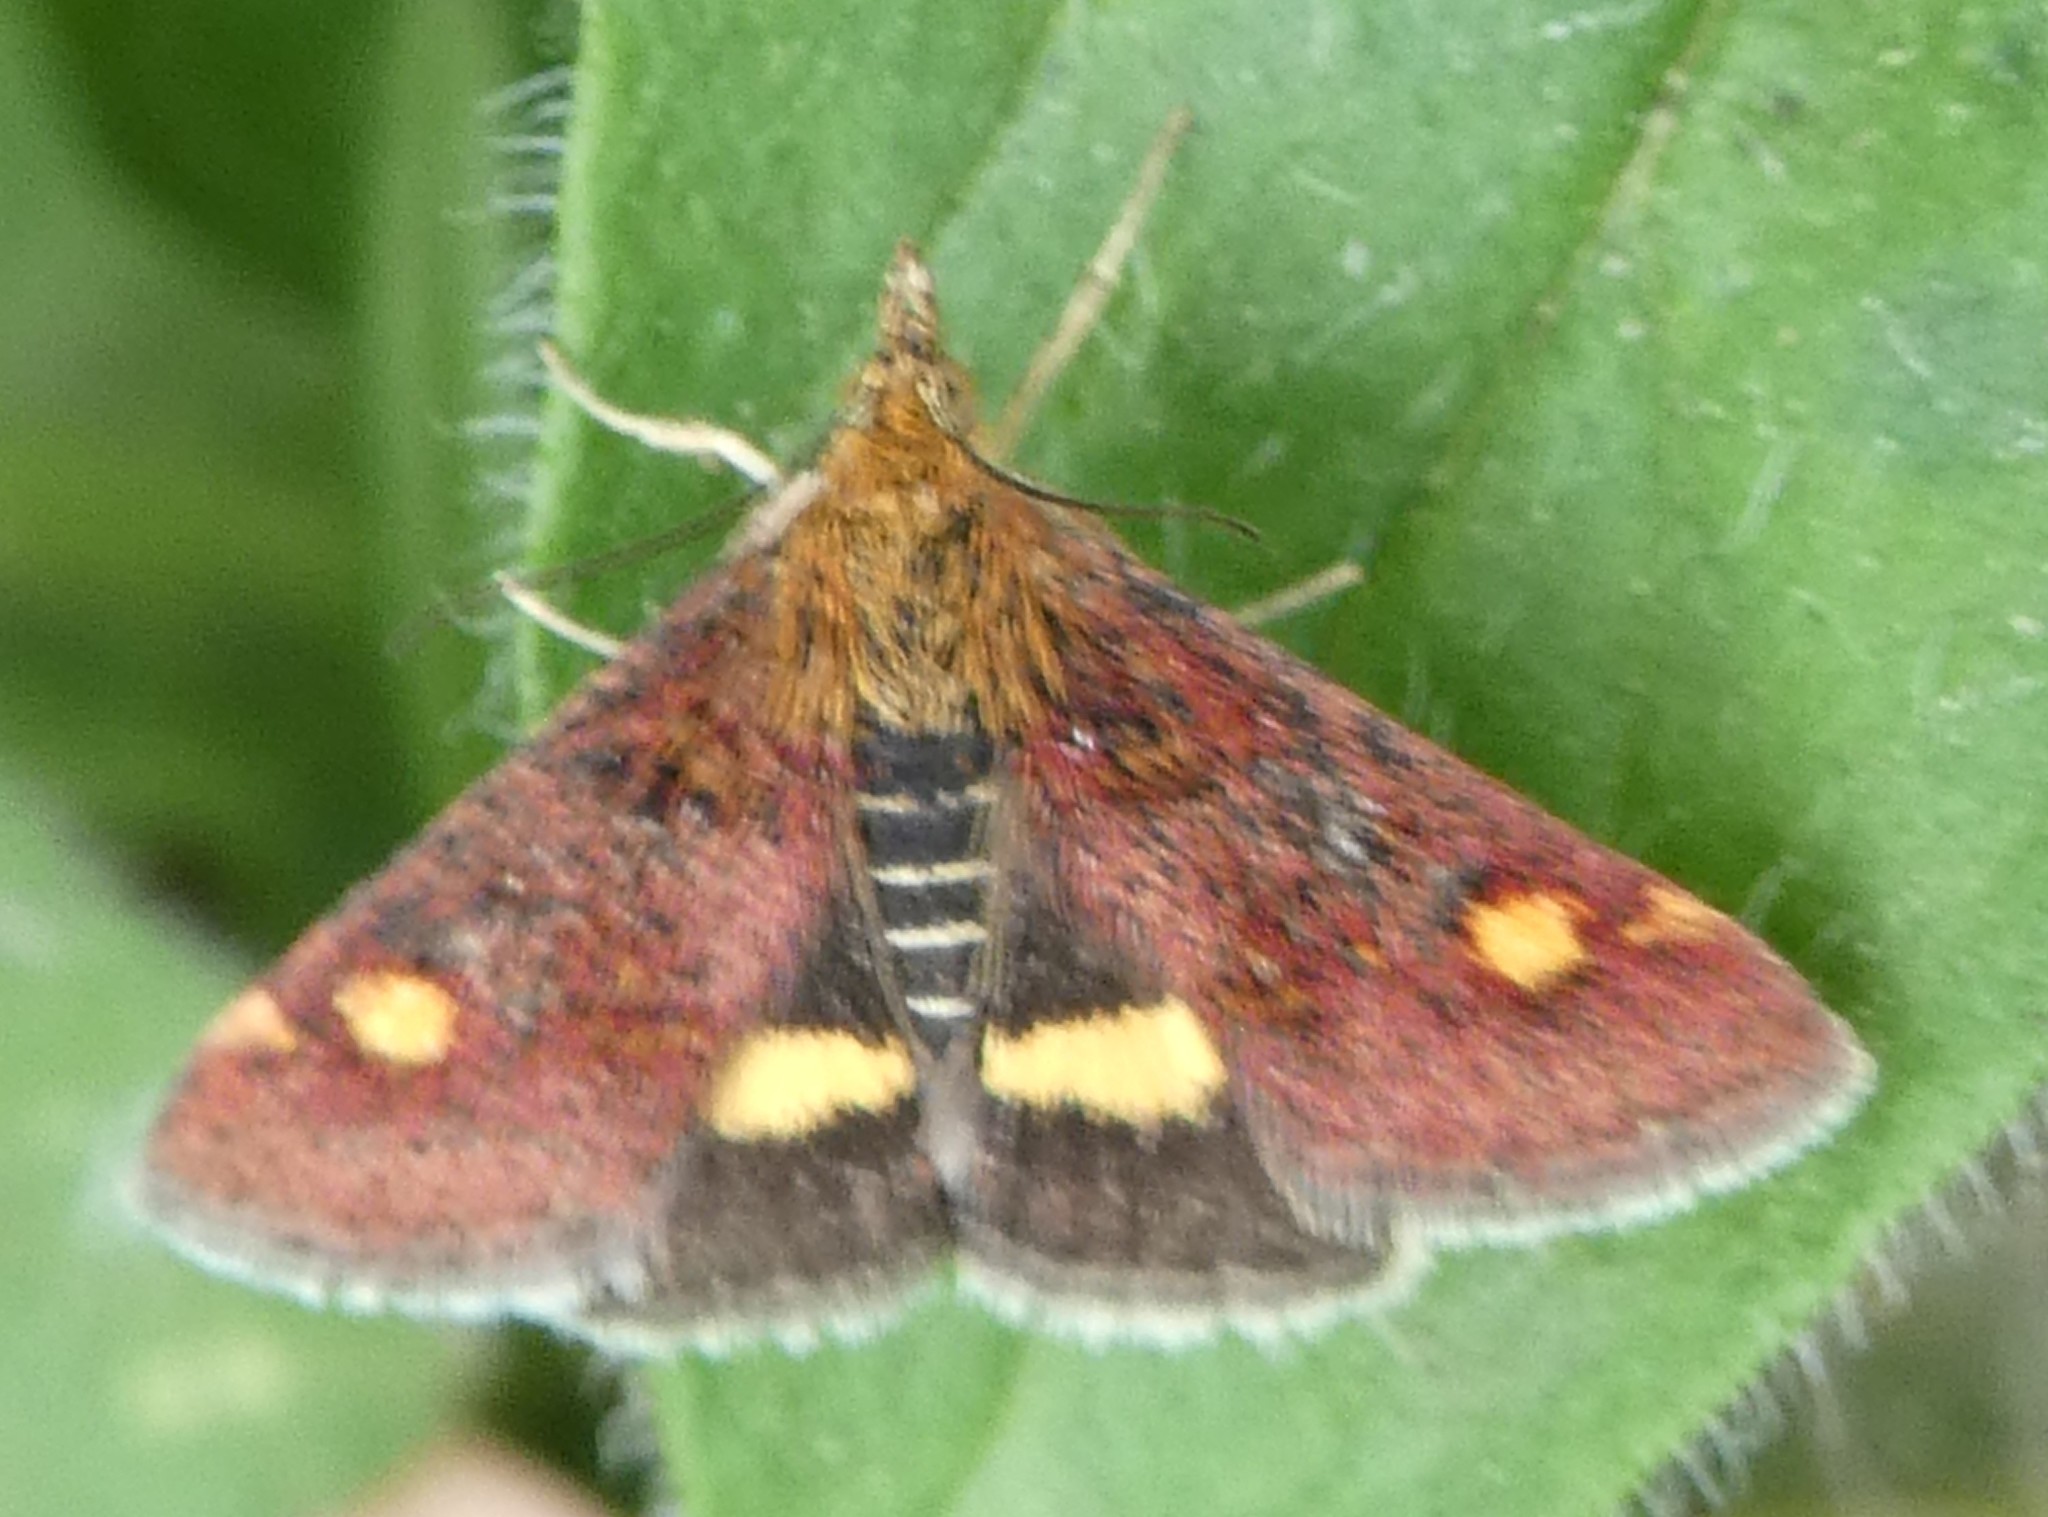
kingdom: Animalia
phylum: Arthropoda
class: Insecta
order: Lepidoptera
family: Crambidae
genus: Pyrausta
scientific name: Pyrausta aurata
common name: Small purple & gold
